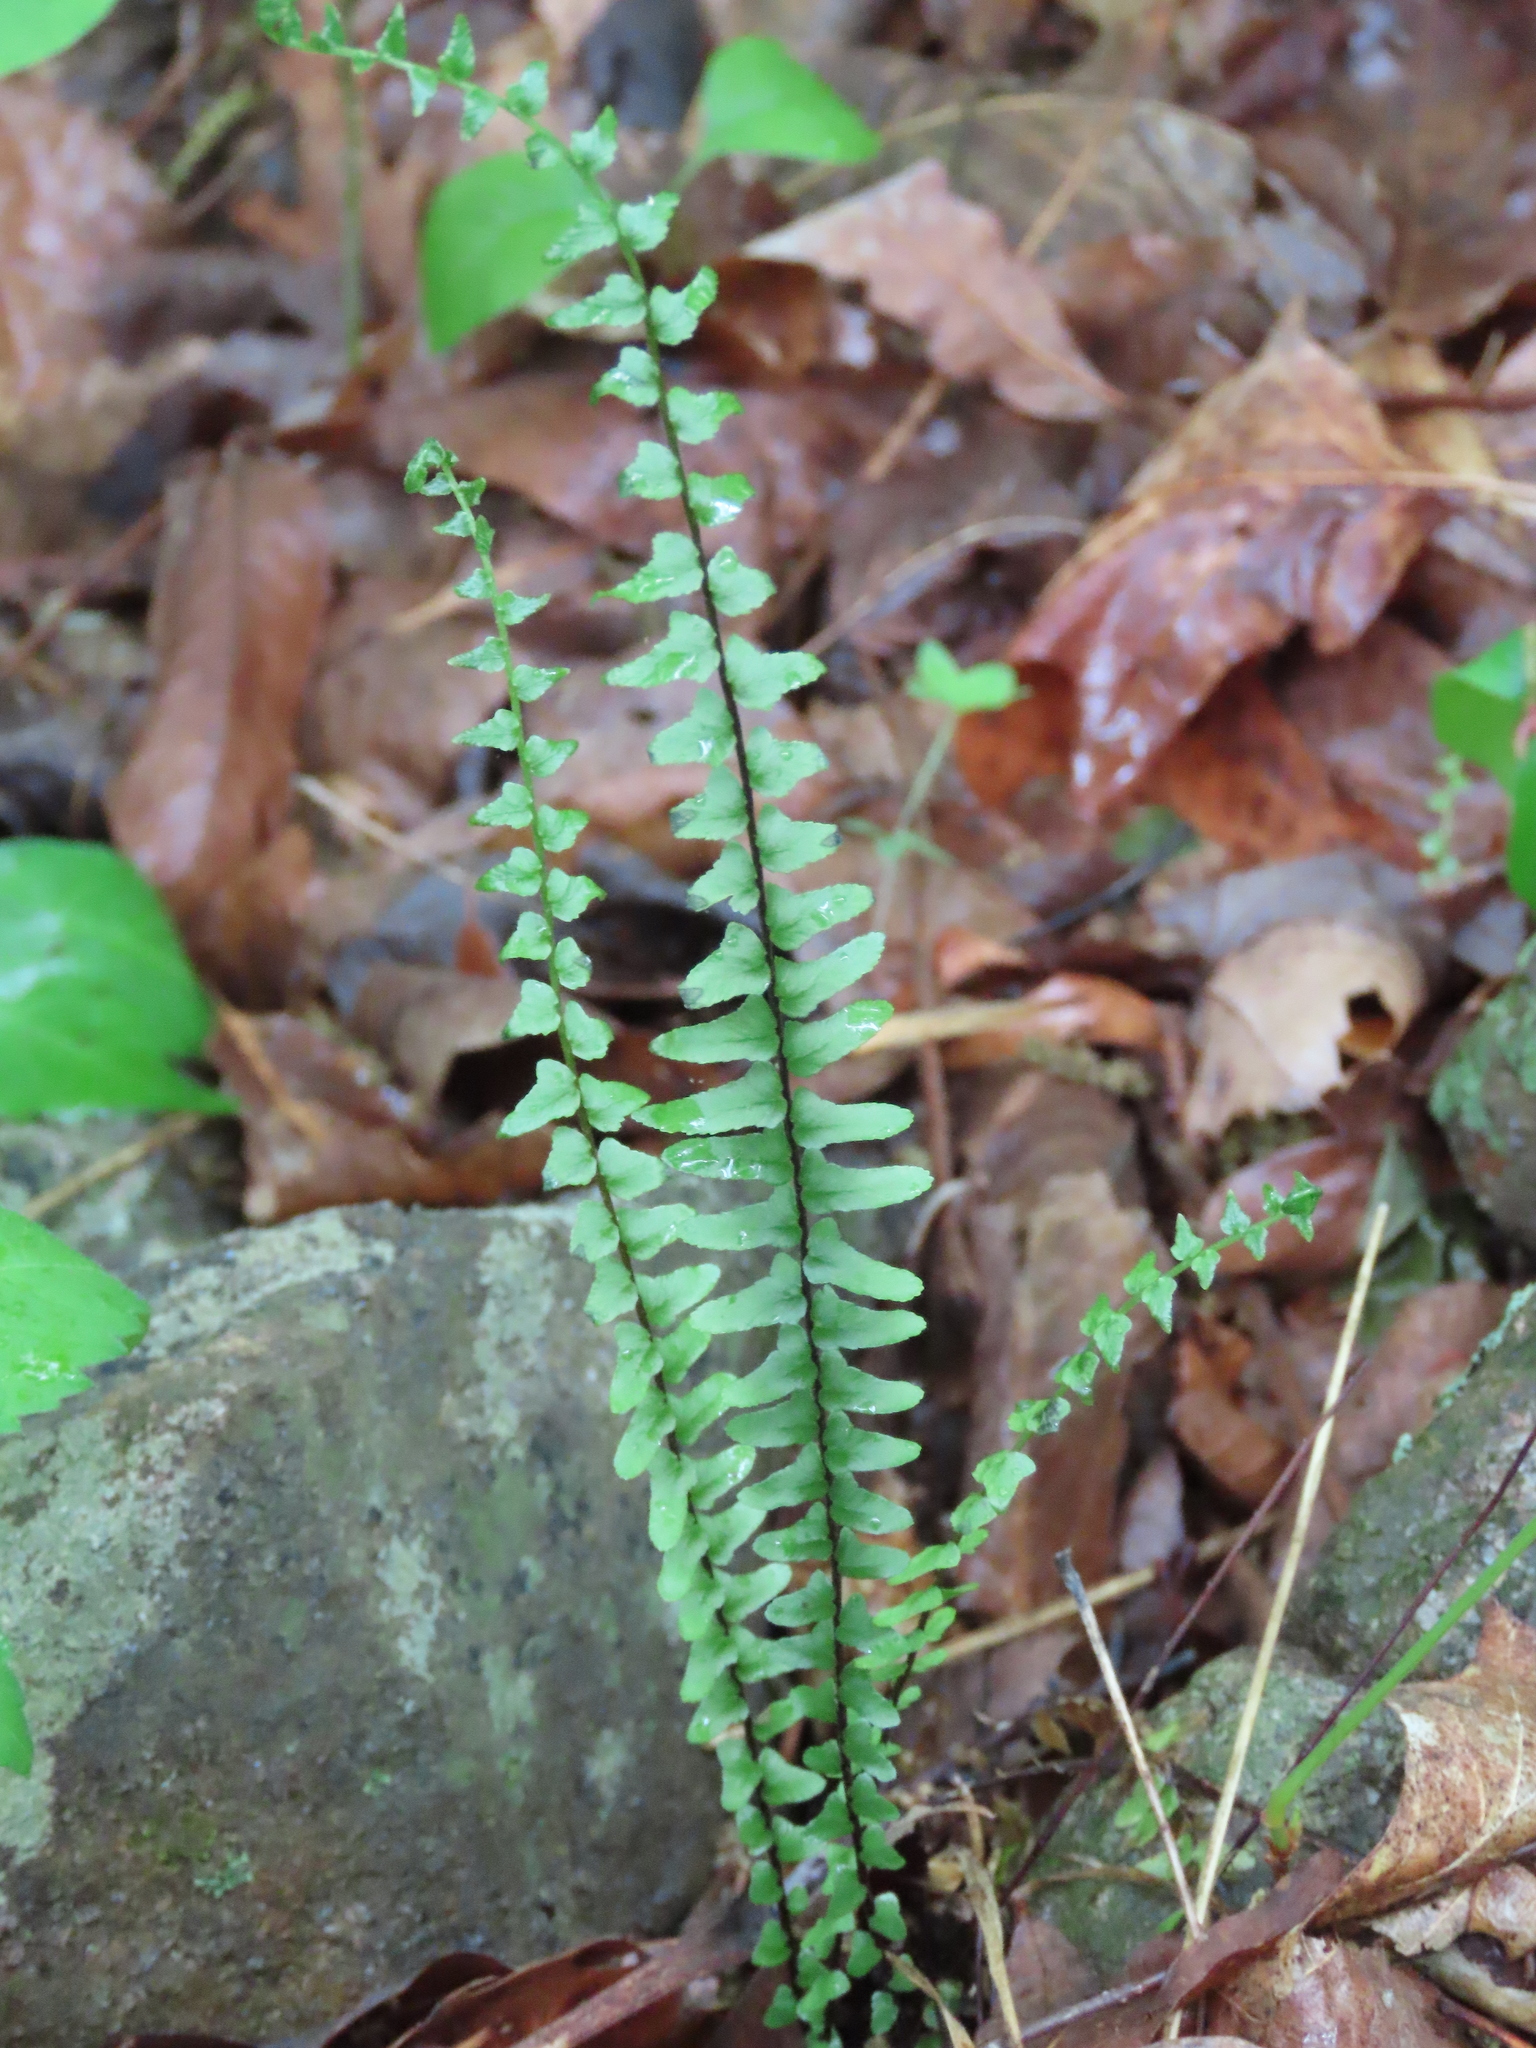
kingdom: Plantae
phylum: Tracheophyta
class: Polypodiopsida
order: Polypodiales
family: Aspleniaceae
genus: Asplenium
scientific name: Asplenium platyneuron
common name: Ebony spleenwort
